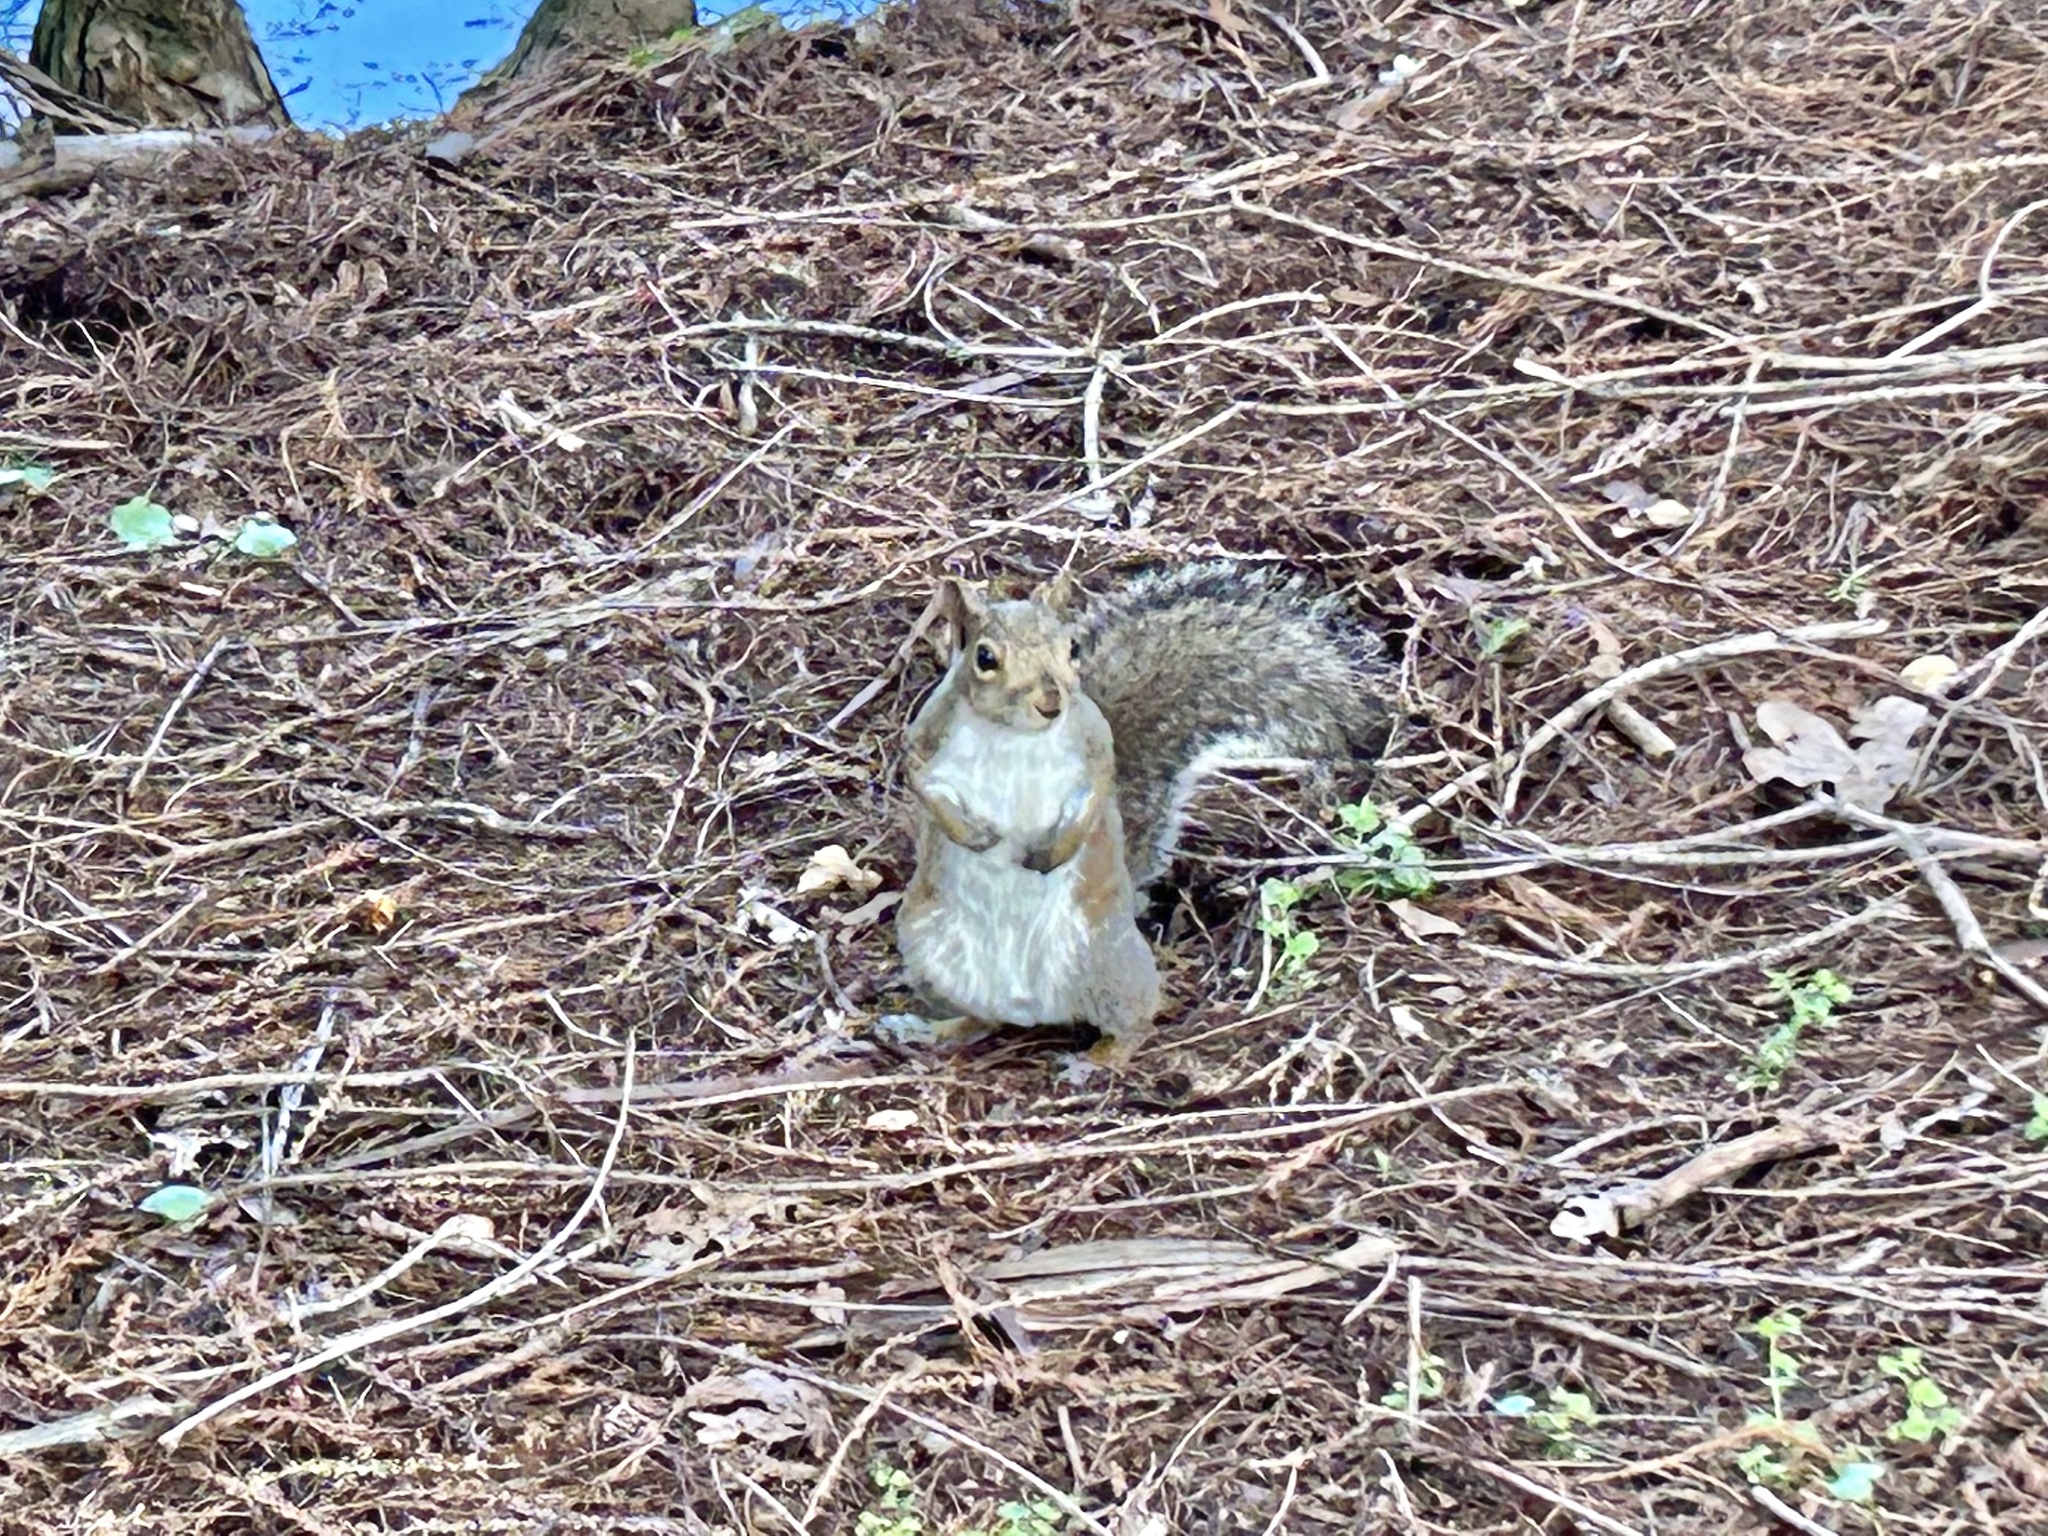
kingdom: Animalia
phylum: Chordata
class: Mammalia
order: Rodentia
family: Sciuridae
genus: Sciurus
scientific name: Sciurus carolinensis
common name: Eastern gray squirrel
